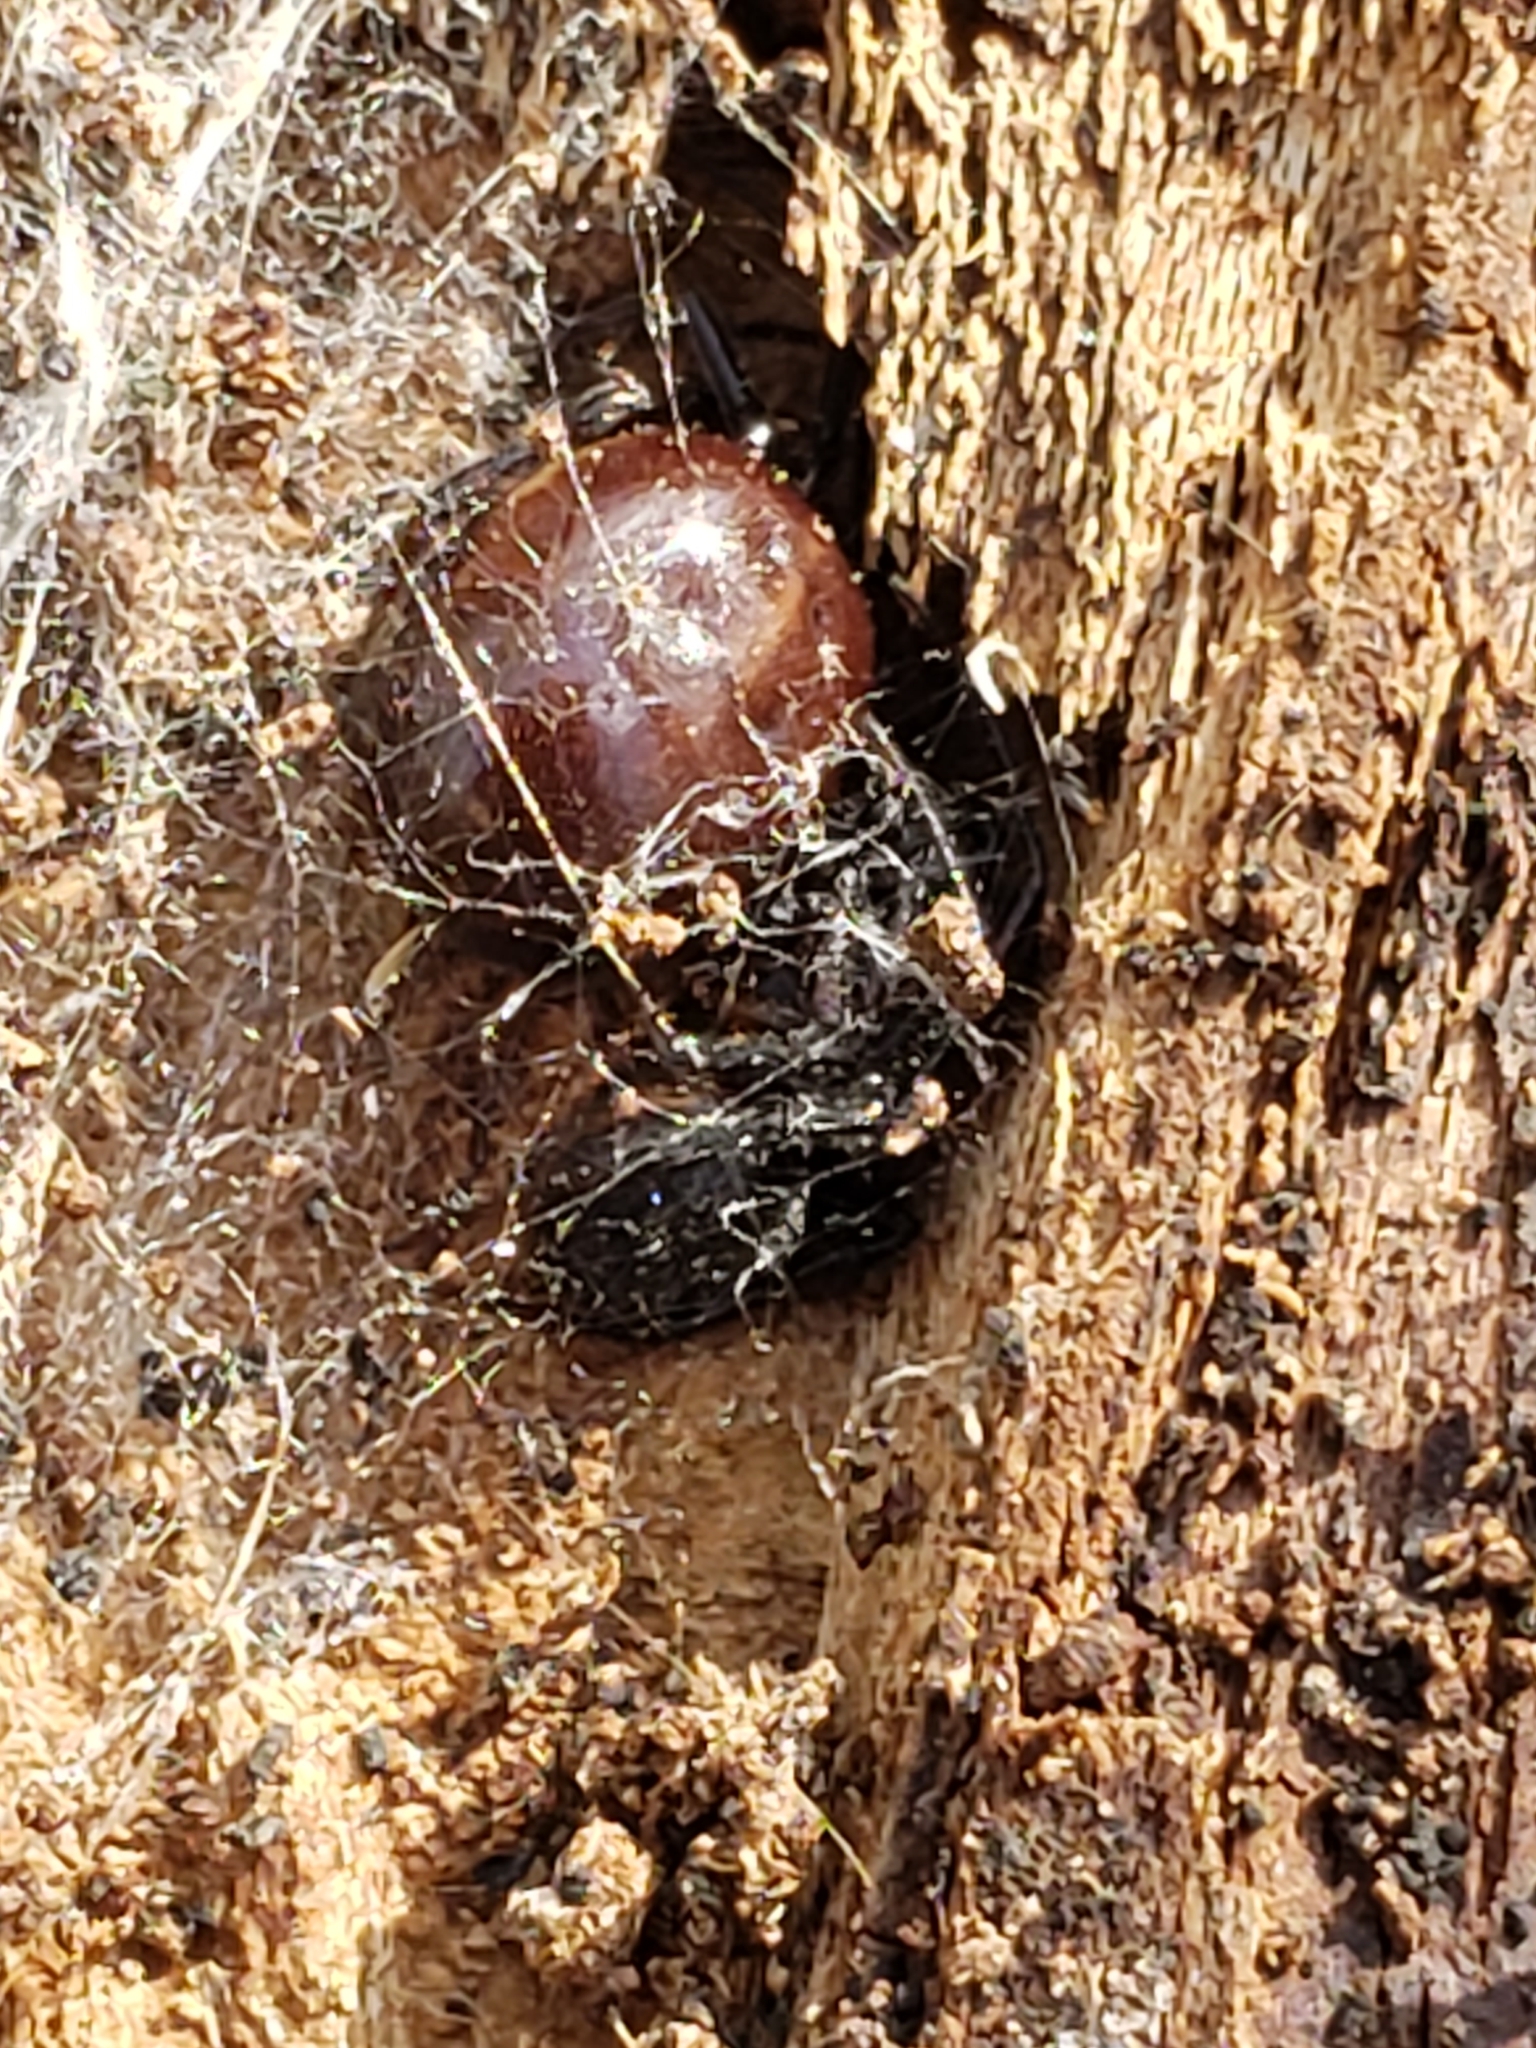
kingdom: Animalia
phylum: Arthropoda
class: Arachnida
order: Araneae
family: Theridiidae
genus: Steatoda
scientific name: Steatoda borealis
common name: Boreal combfoot
